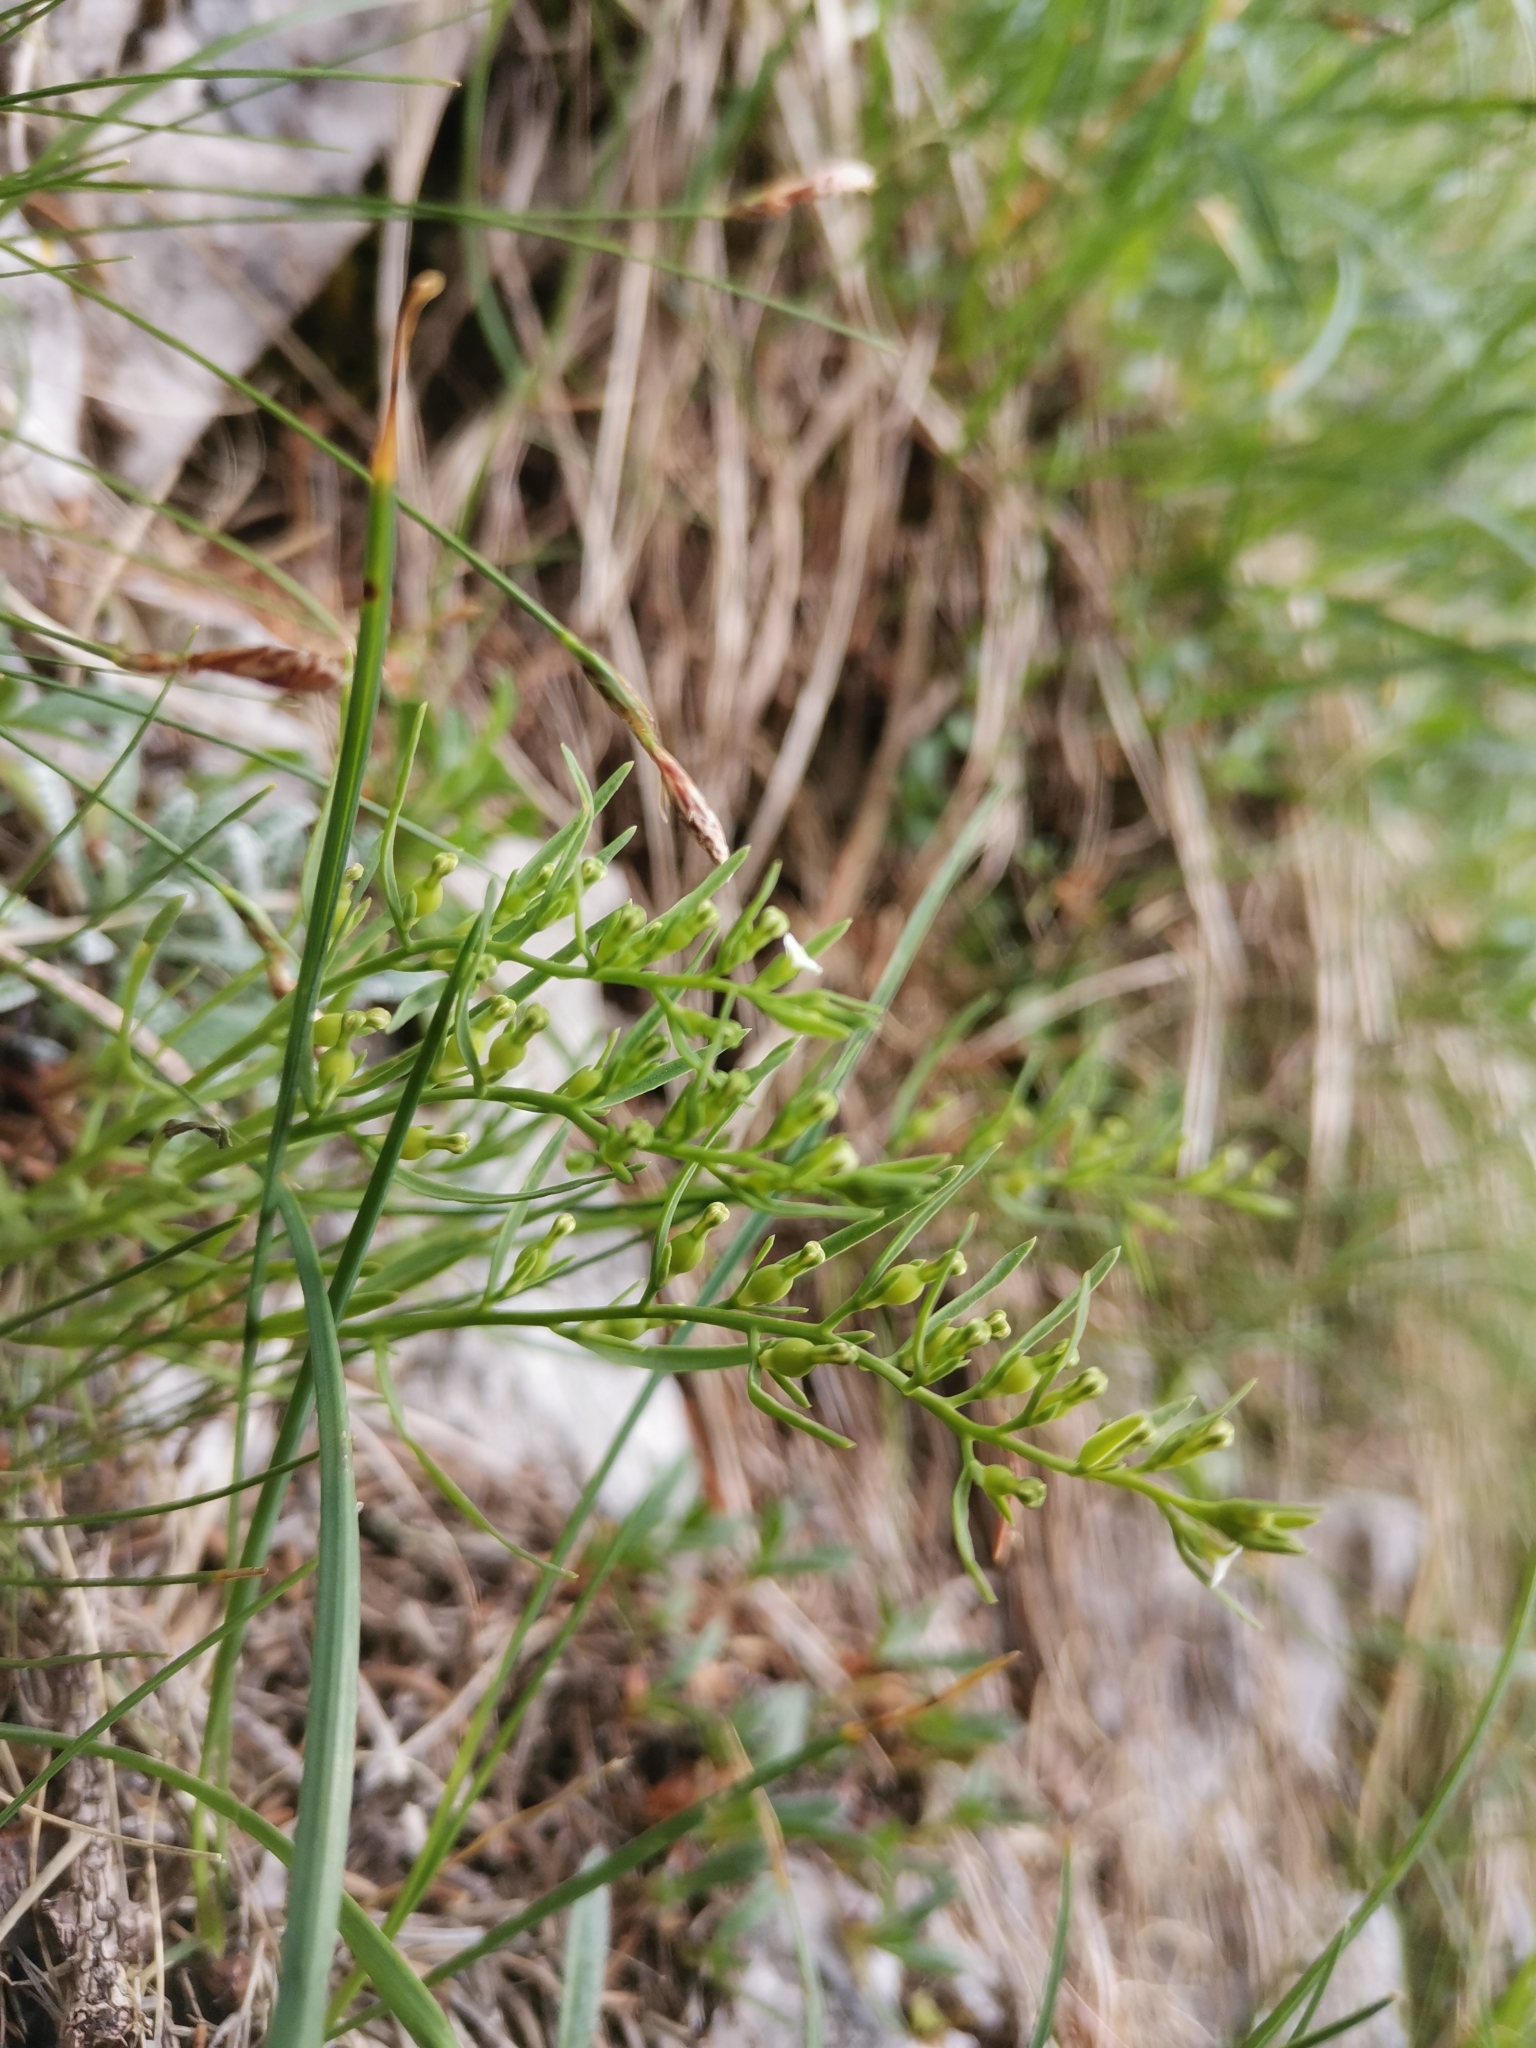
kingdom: Plantae
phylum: Tracheophyta
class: Magnoliopsida
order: Santalales
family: Thesiaceae
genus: Thesium
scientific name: Thesium alpinum
